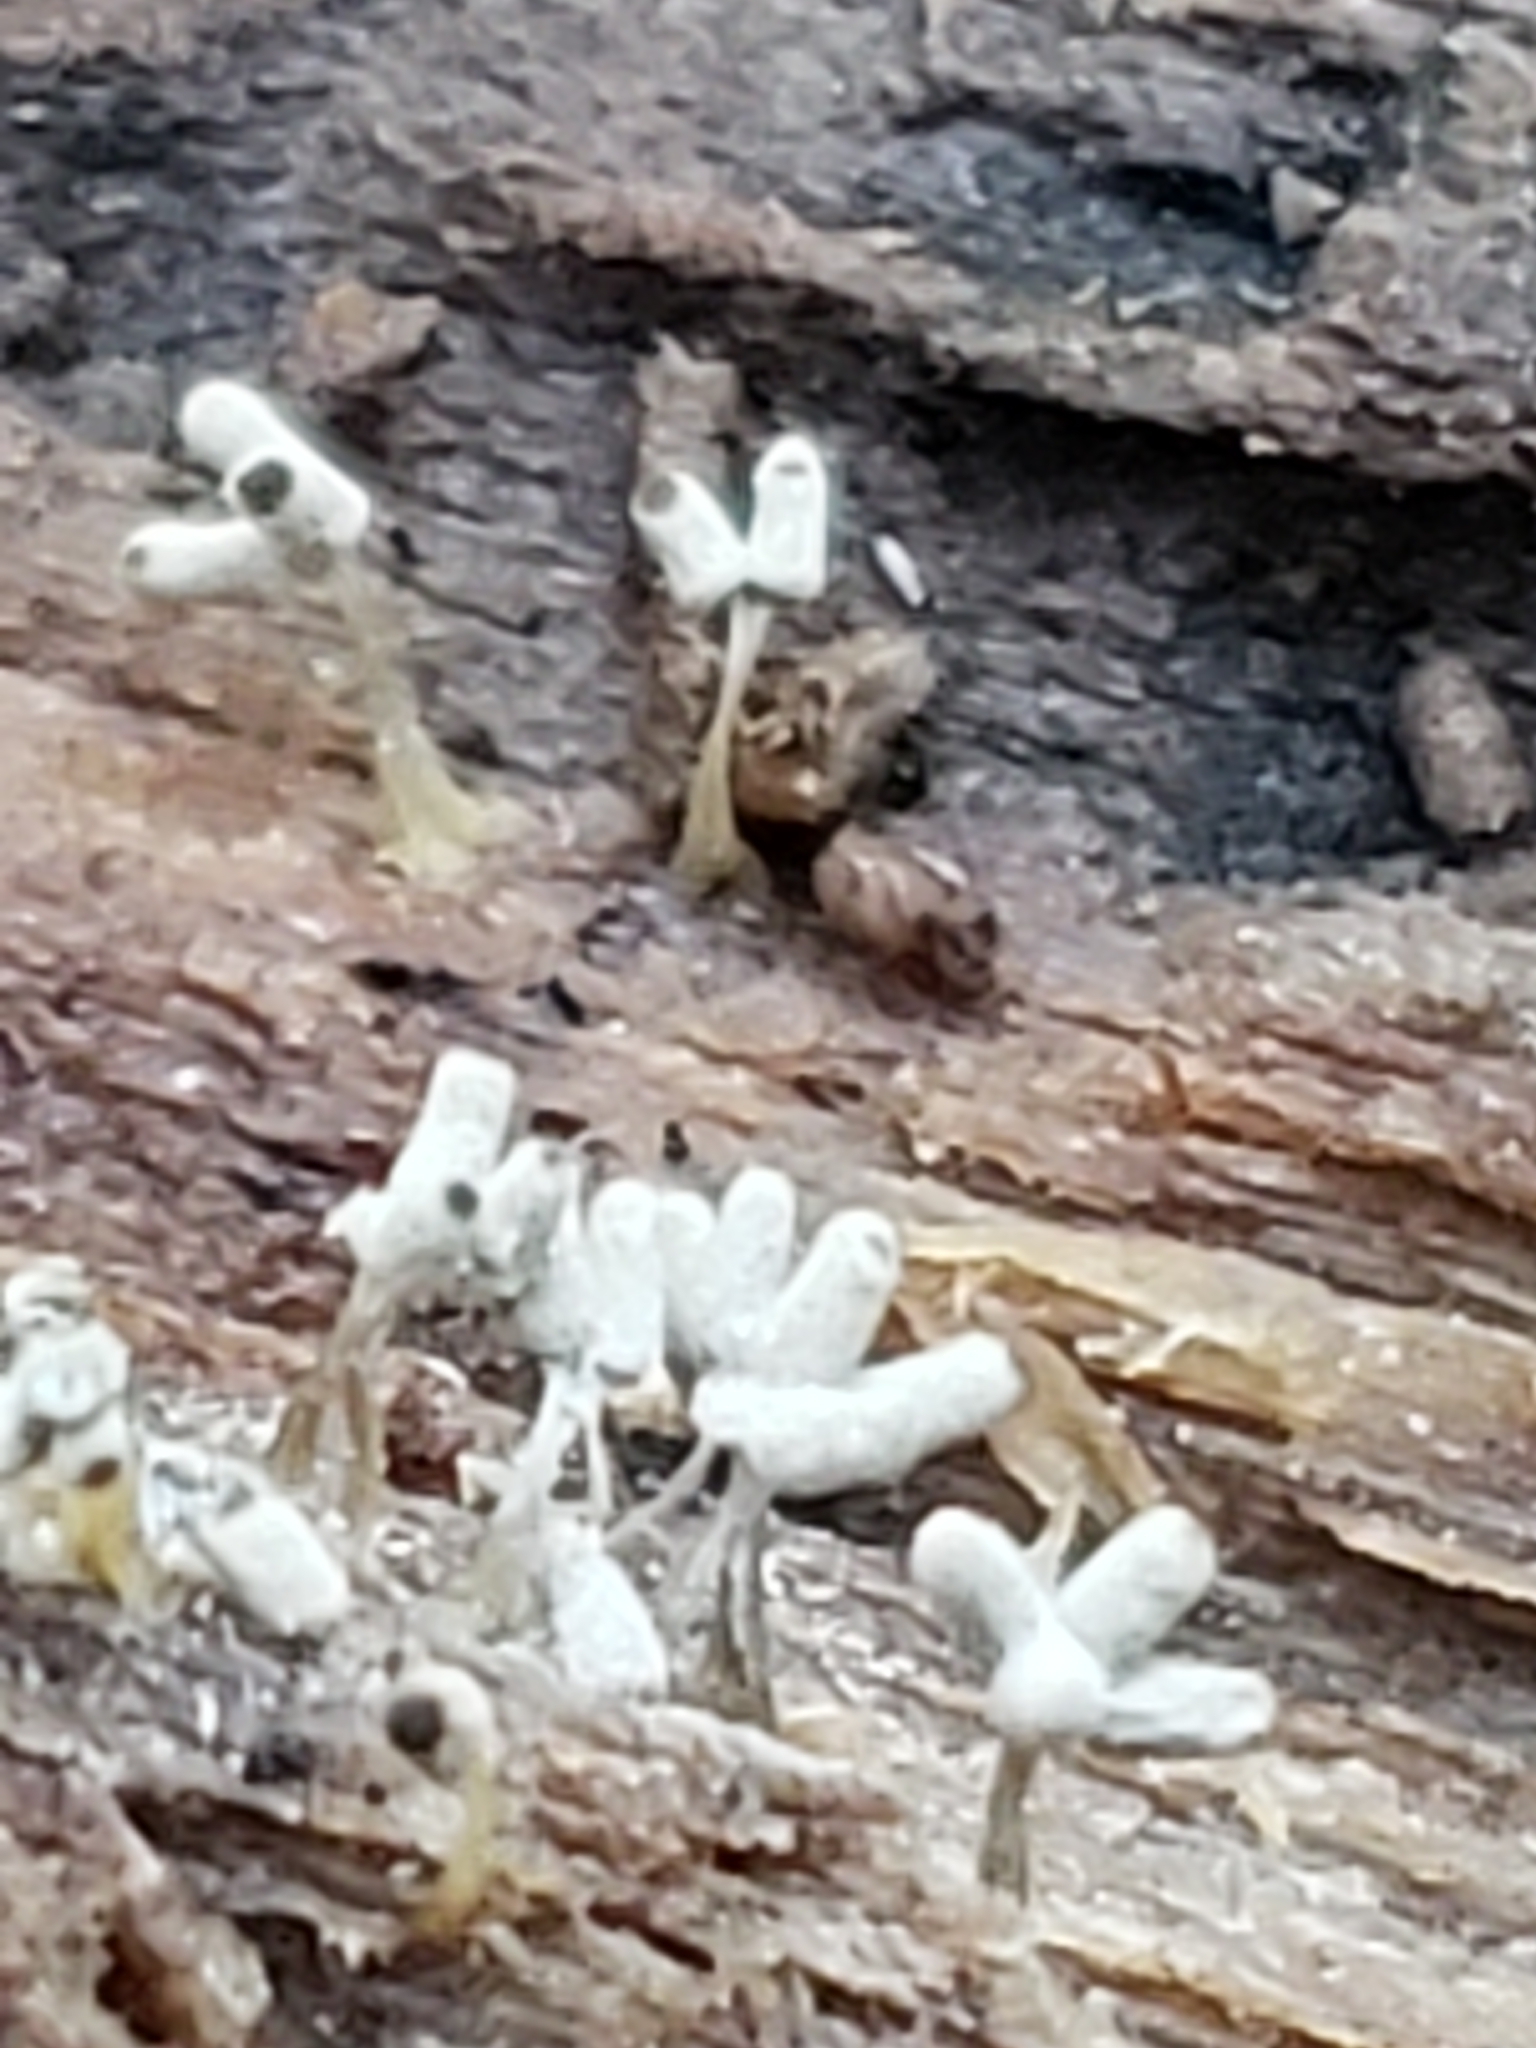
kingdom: Protozoa
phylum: Mycetozoa
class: Myxomycetes
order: Trichiales
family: Arcyriaceae
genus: Arcyria
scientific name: Arcyria cinerea
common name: White carnival candy slime mold
